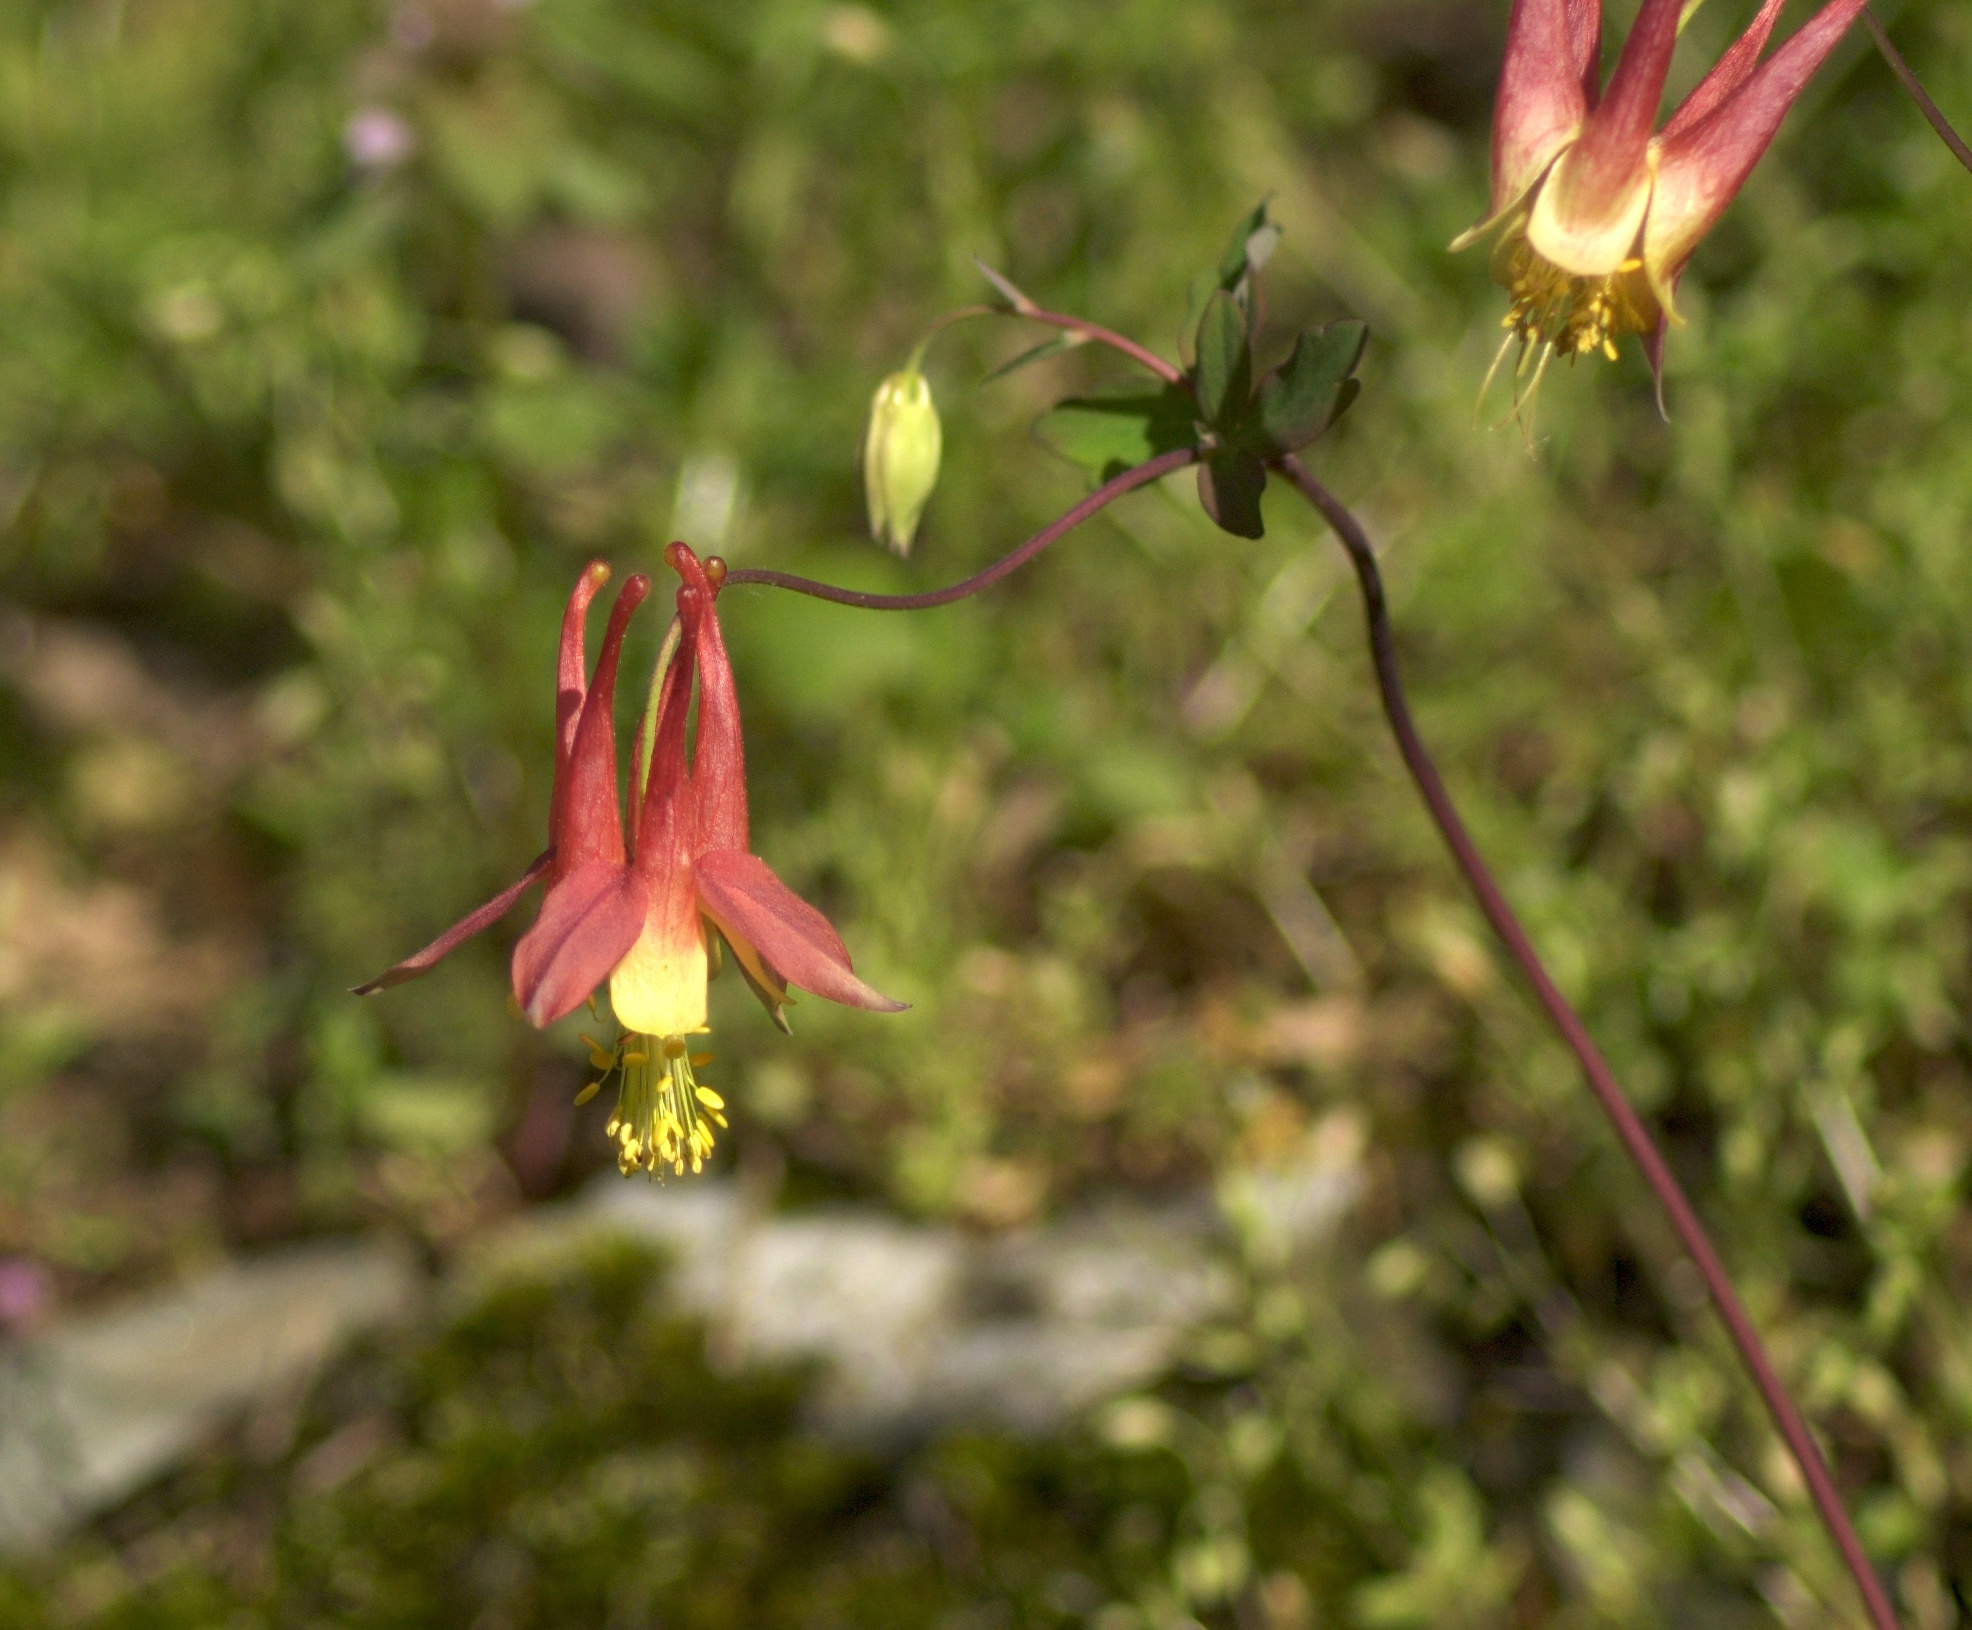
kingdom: Plantae
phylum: Tracheophyta
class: Magnoliopsida
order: Ranunculales
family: Ranunculaceae
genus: Aquilegia
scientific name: Aquilegia canadensis
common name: American columbine
